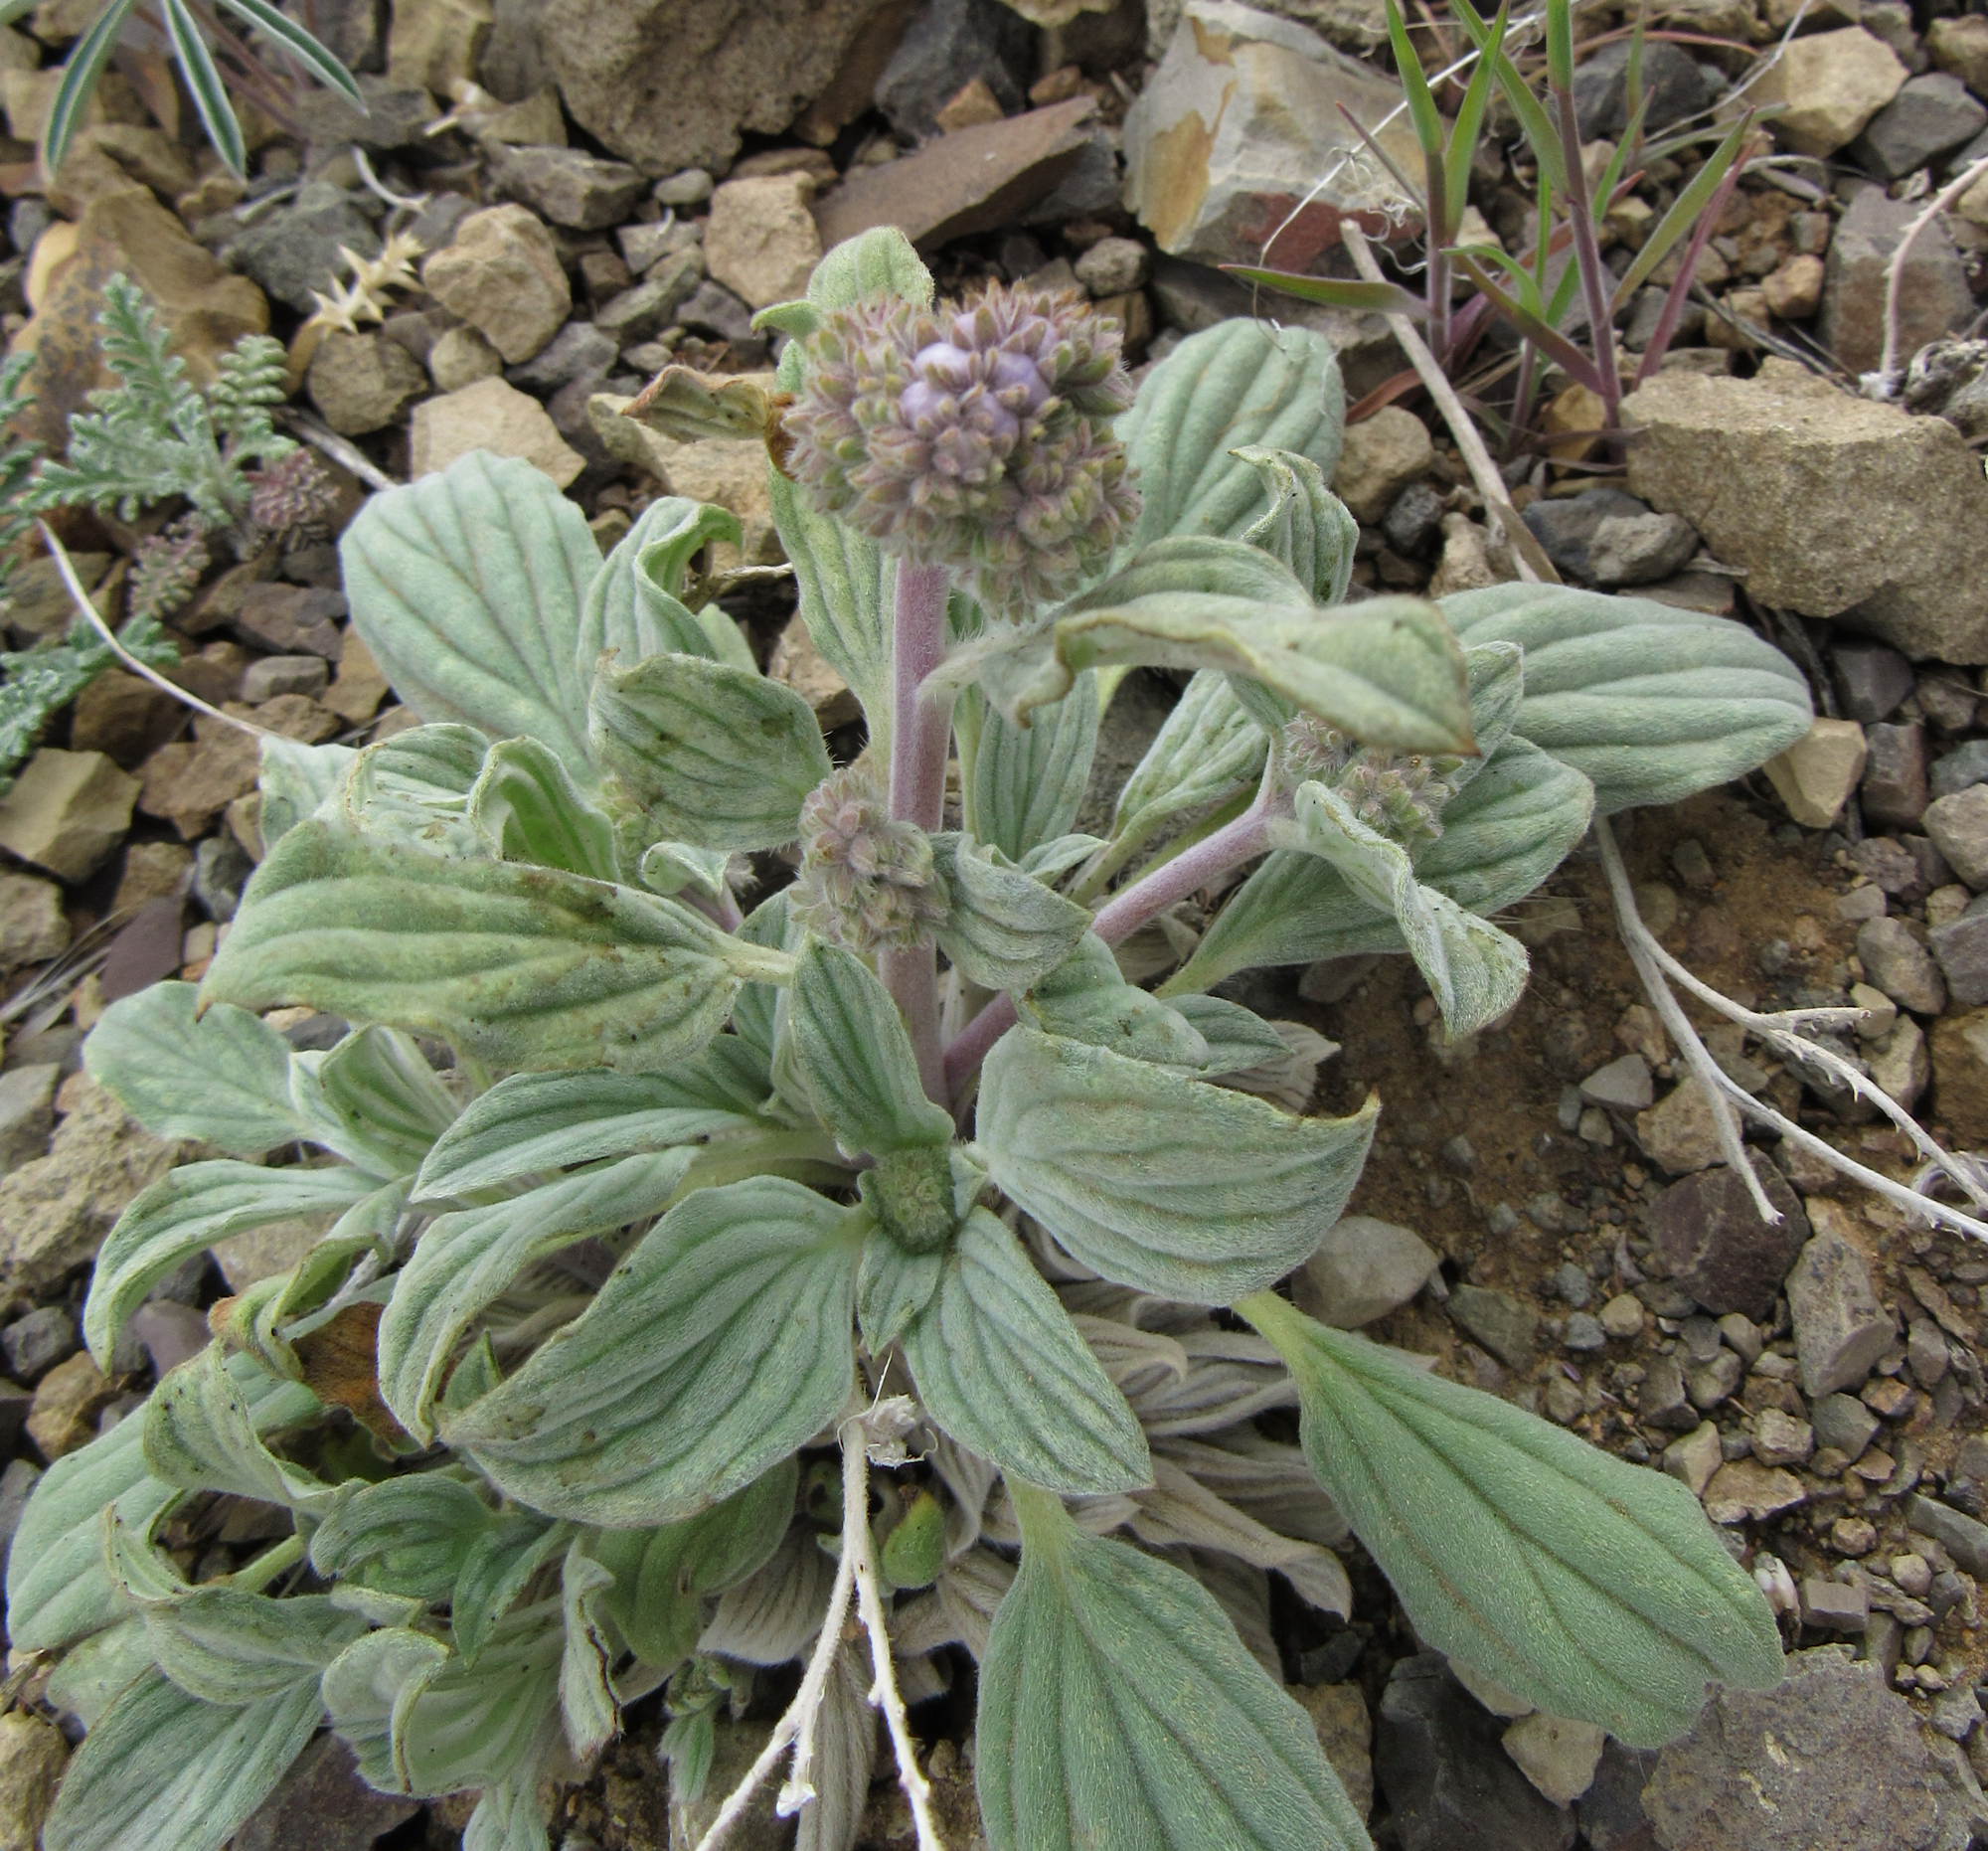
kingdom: Plantae
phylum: Tracheophyta
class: Magnoliopsida
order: Boraginales
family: Hydrophyllaceae
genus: Phacelia
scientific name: Phacelia hastata
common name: Silver-leaved phacelia
